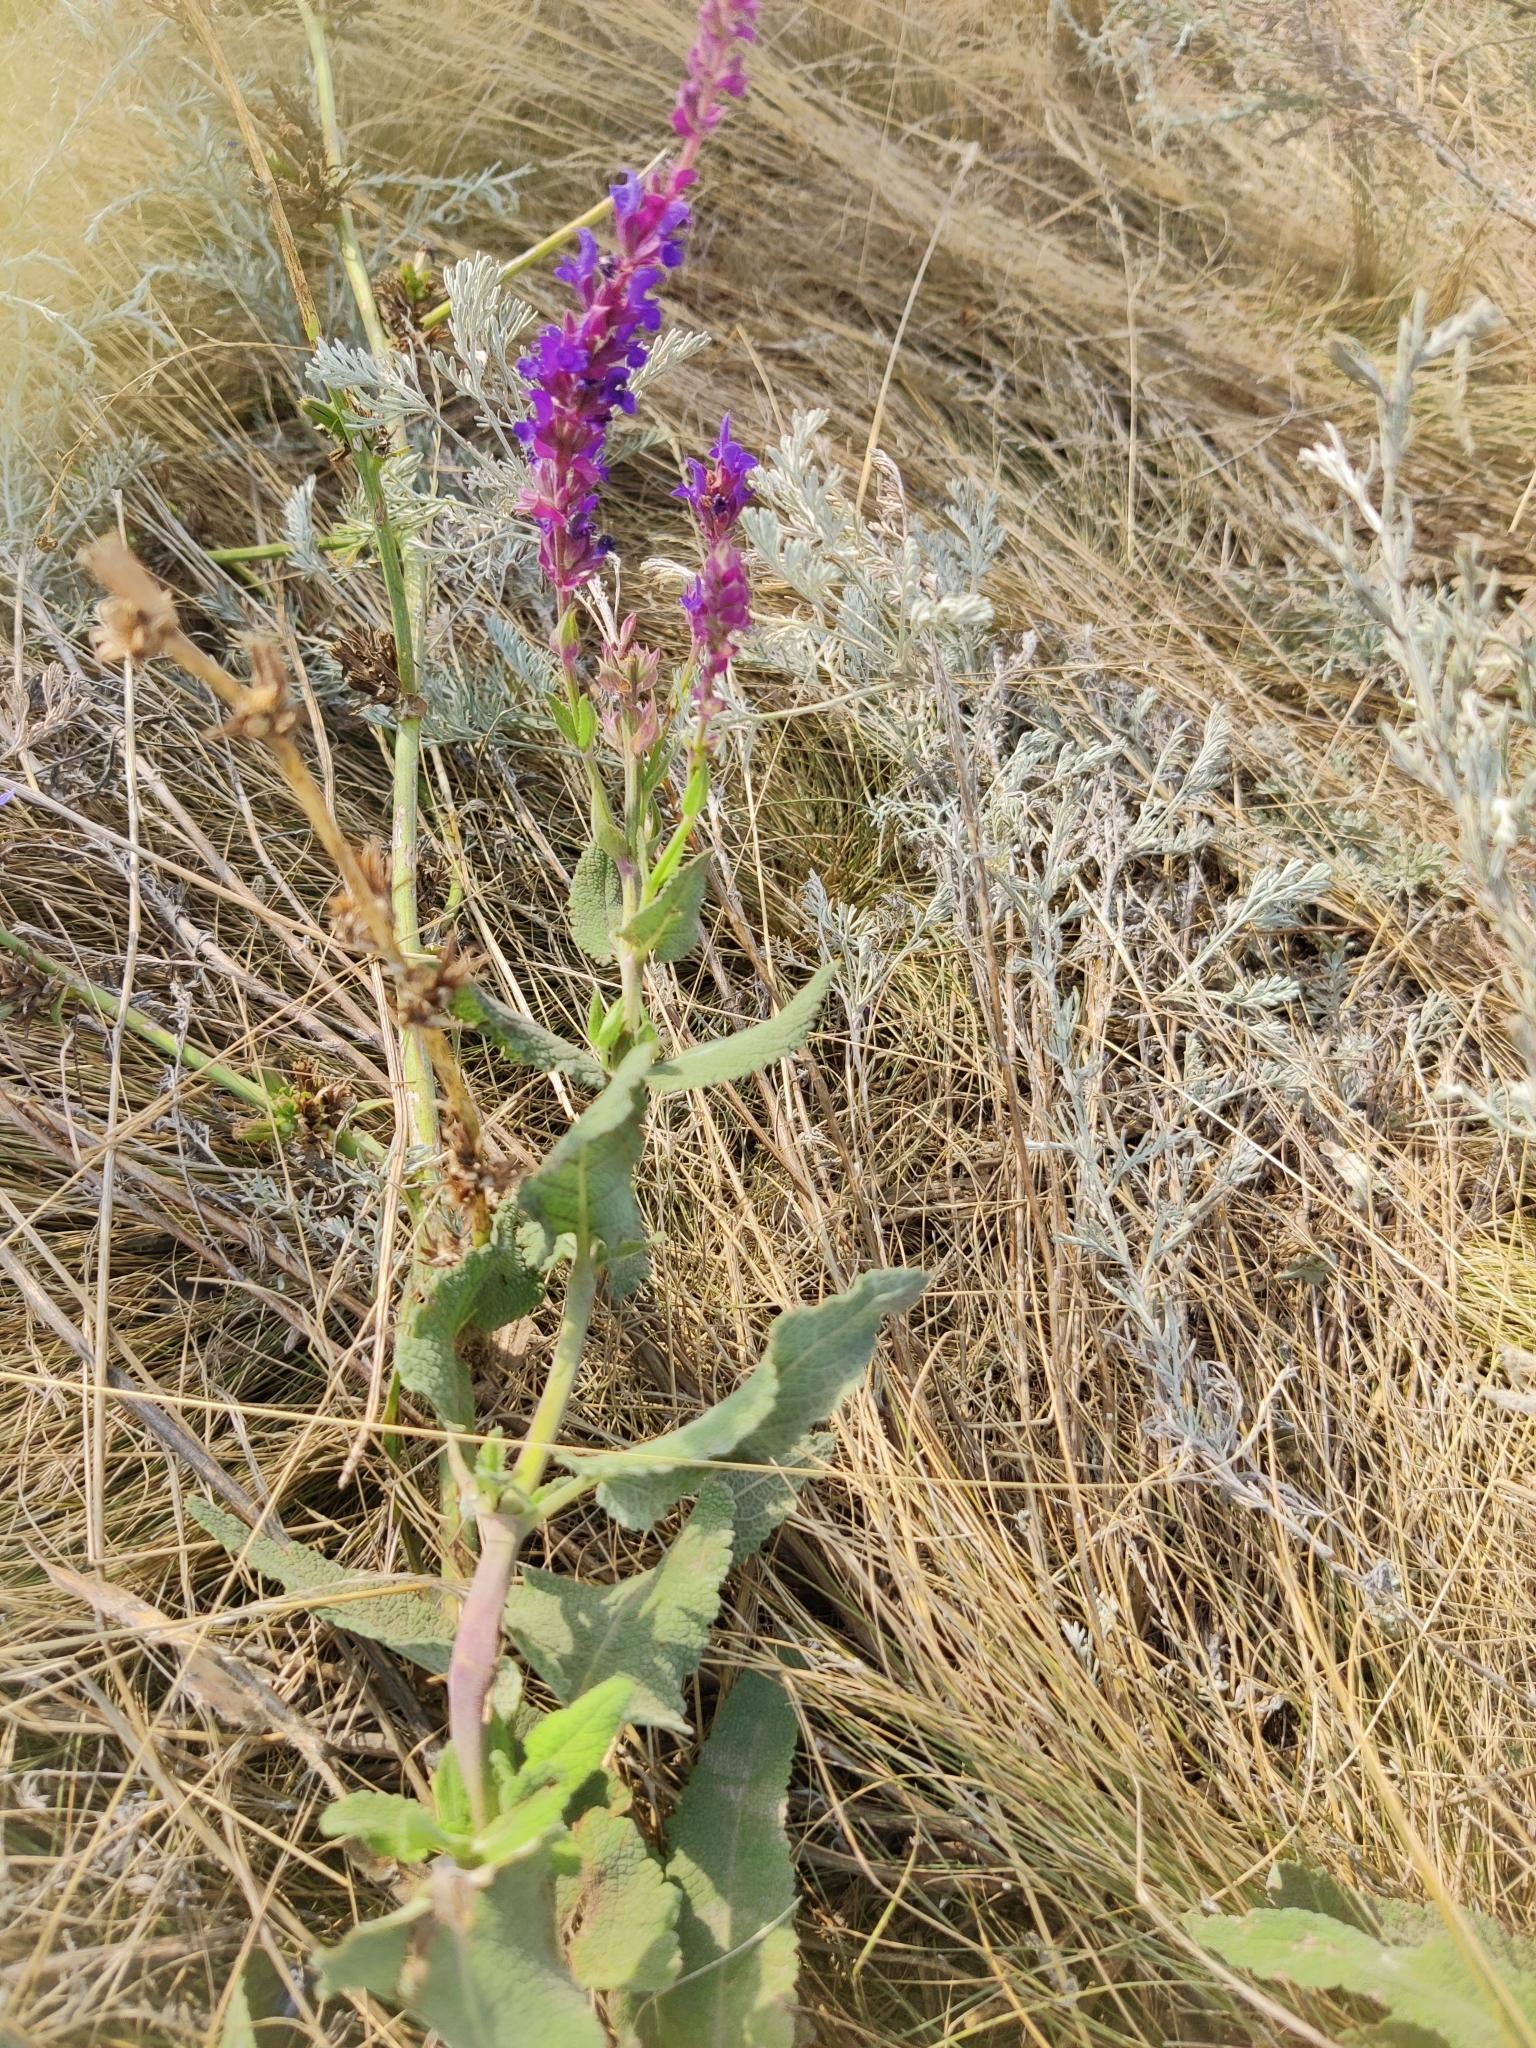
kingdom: Plantae
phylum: Tracheophyta
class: Magnoliopsida
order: Lamiales
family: Lamiaceae
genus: Salvia
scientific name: Salvia nemorosa
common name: Balkan clary
